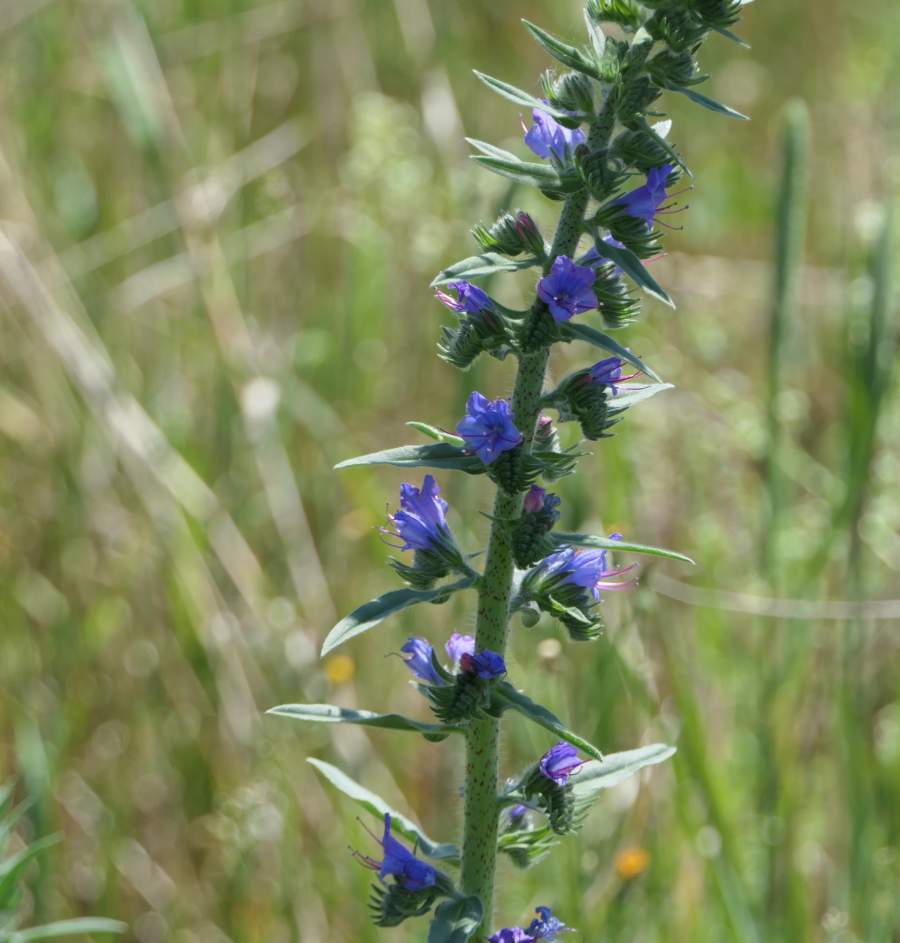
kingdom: Plantae
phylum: Tracheophyta
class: Magnoliopsida
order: Boraginales
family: Boraginaceae
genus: Echium
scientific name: Echium vulgare
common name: Common viper's bugloss
